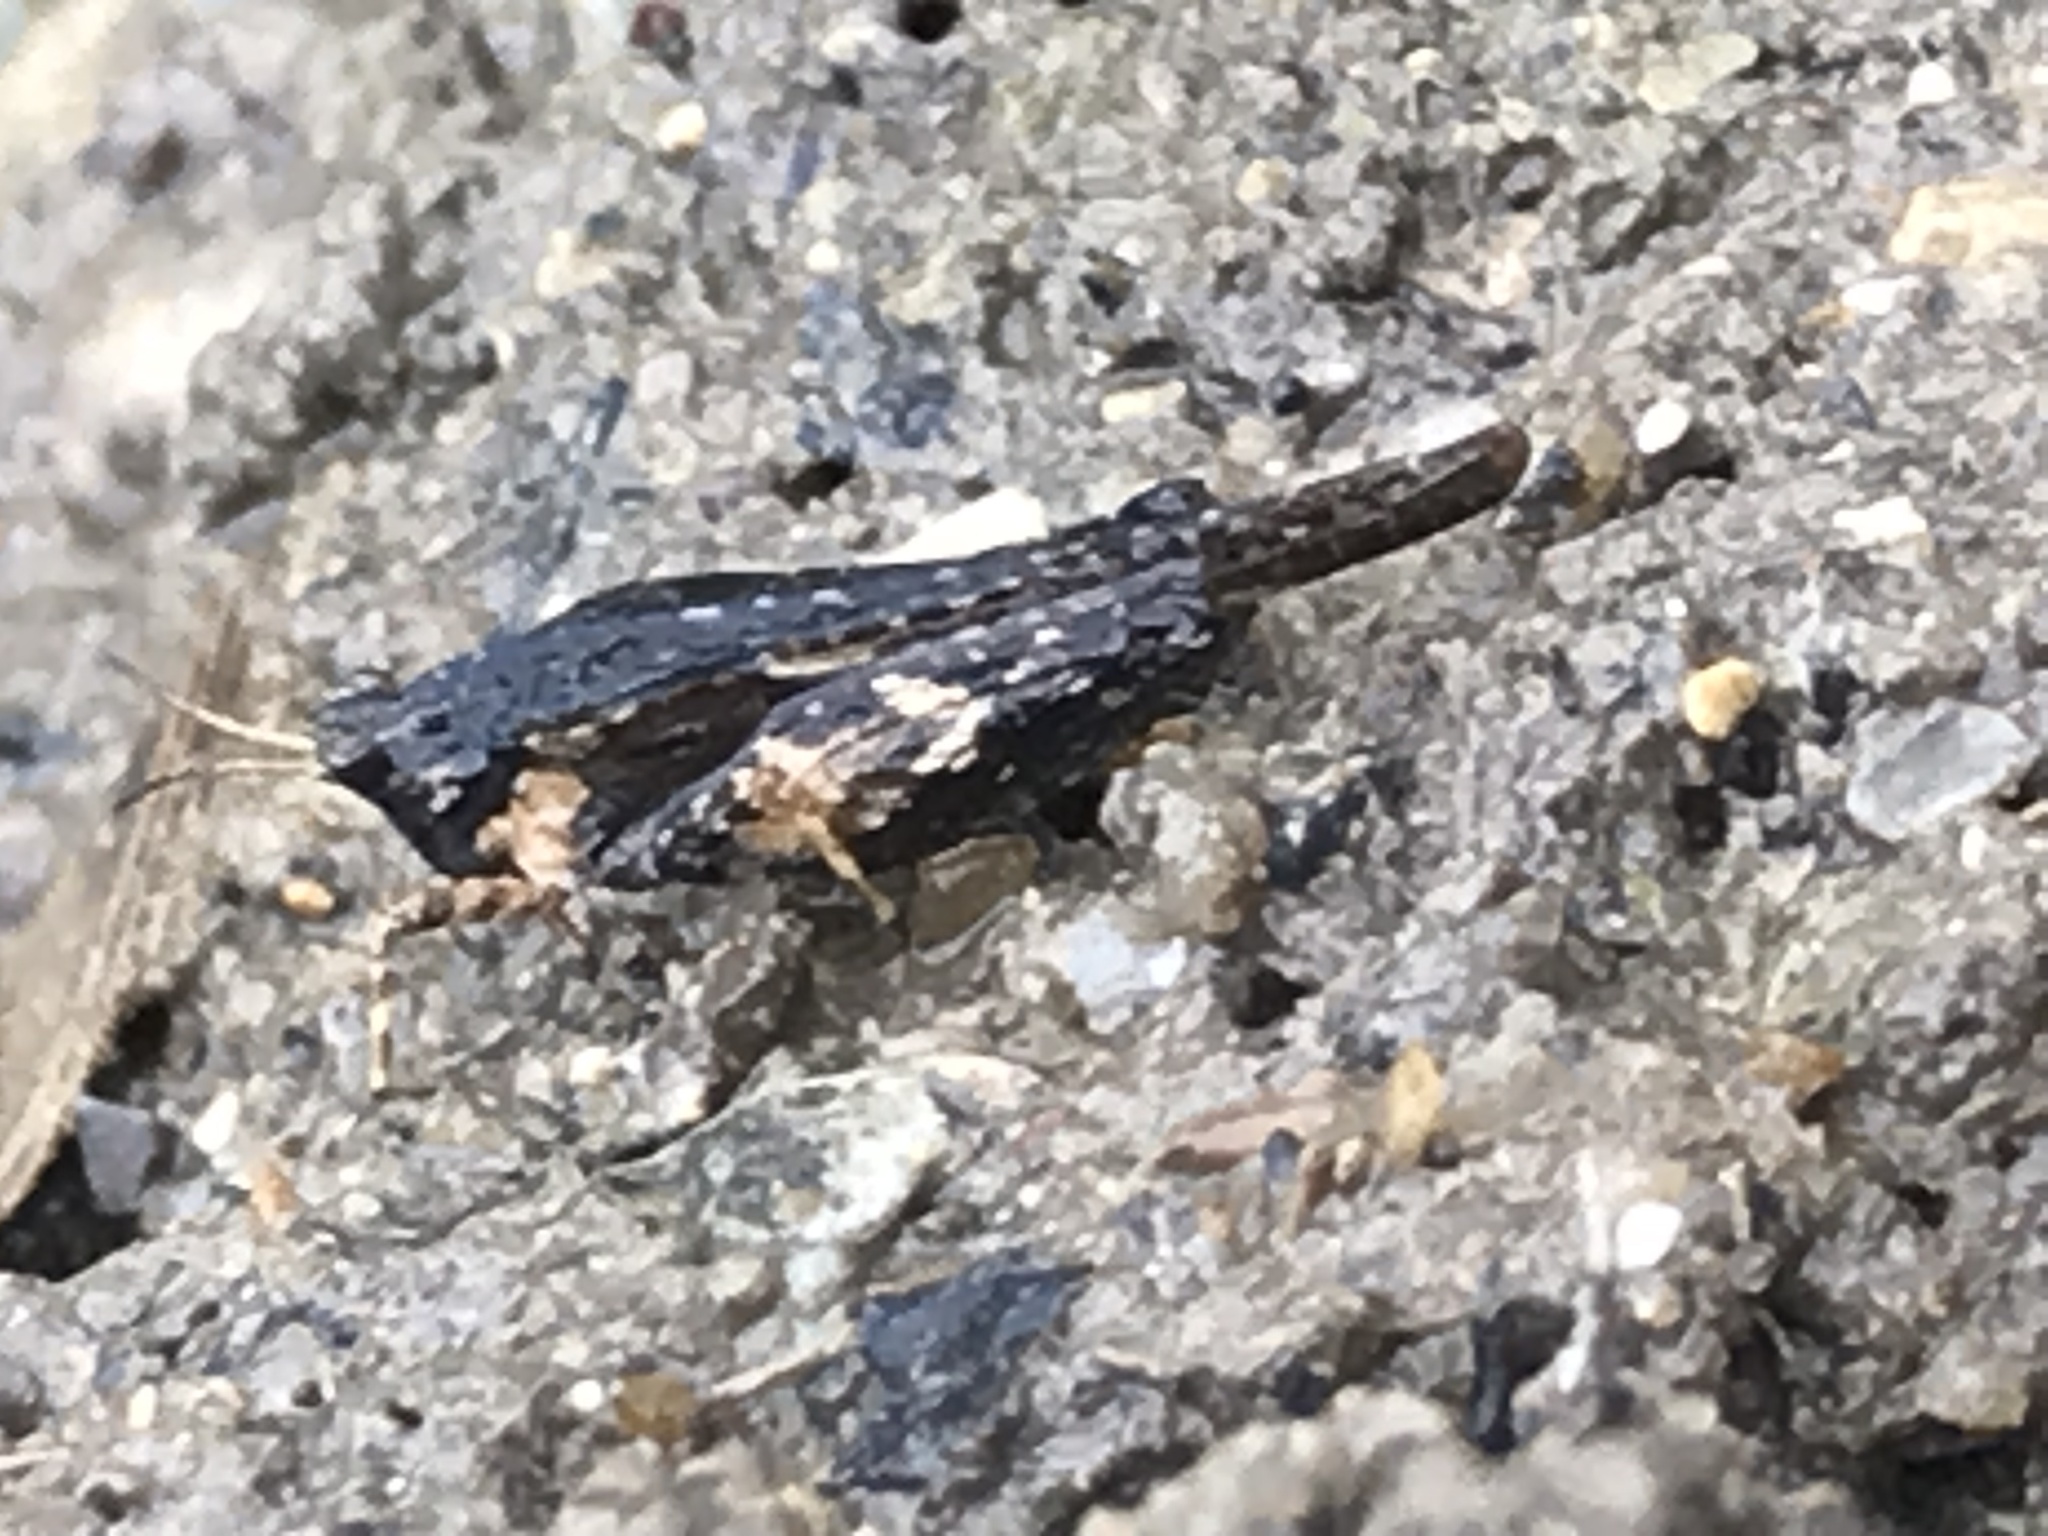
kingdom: Animalia
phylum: Arthropoda
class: Insecta
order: Orthoptera
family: Tetrigidae
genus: Tetrix
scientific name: Tetrix subulata
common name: Slender ground-hopper
